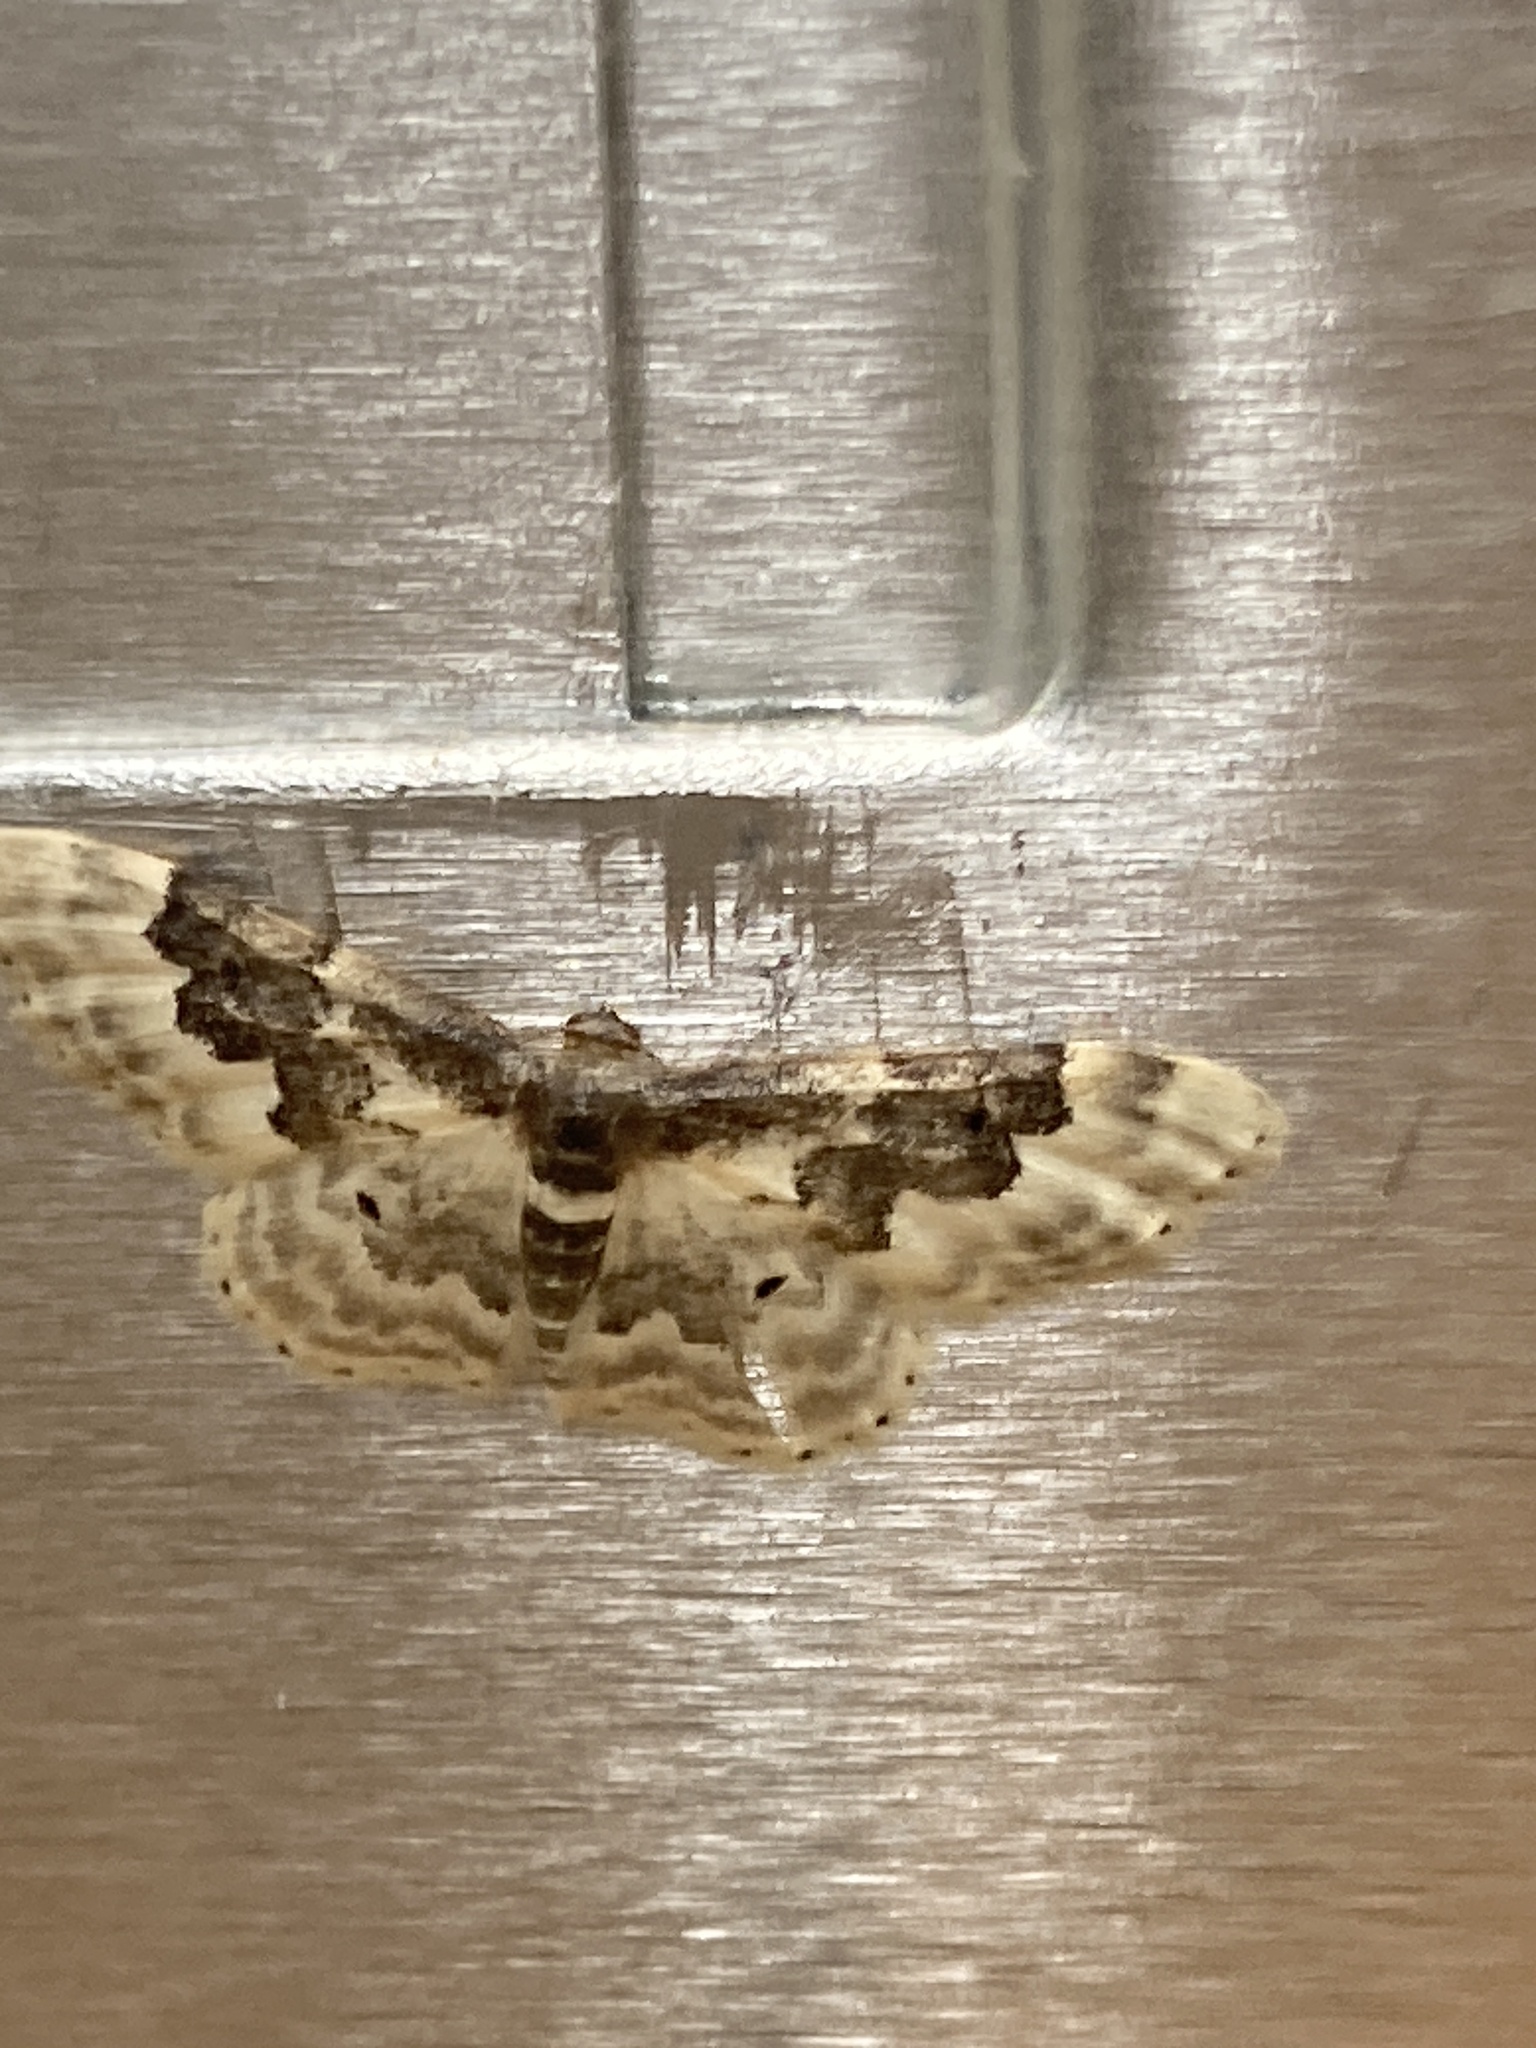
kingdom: Animalia
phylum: Arthropoda
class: Insecta
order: Lepidoptera
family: Geometridae
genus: Idaea
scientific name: Idaea rusticata
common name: Least carpet
